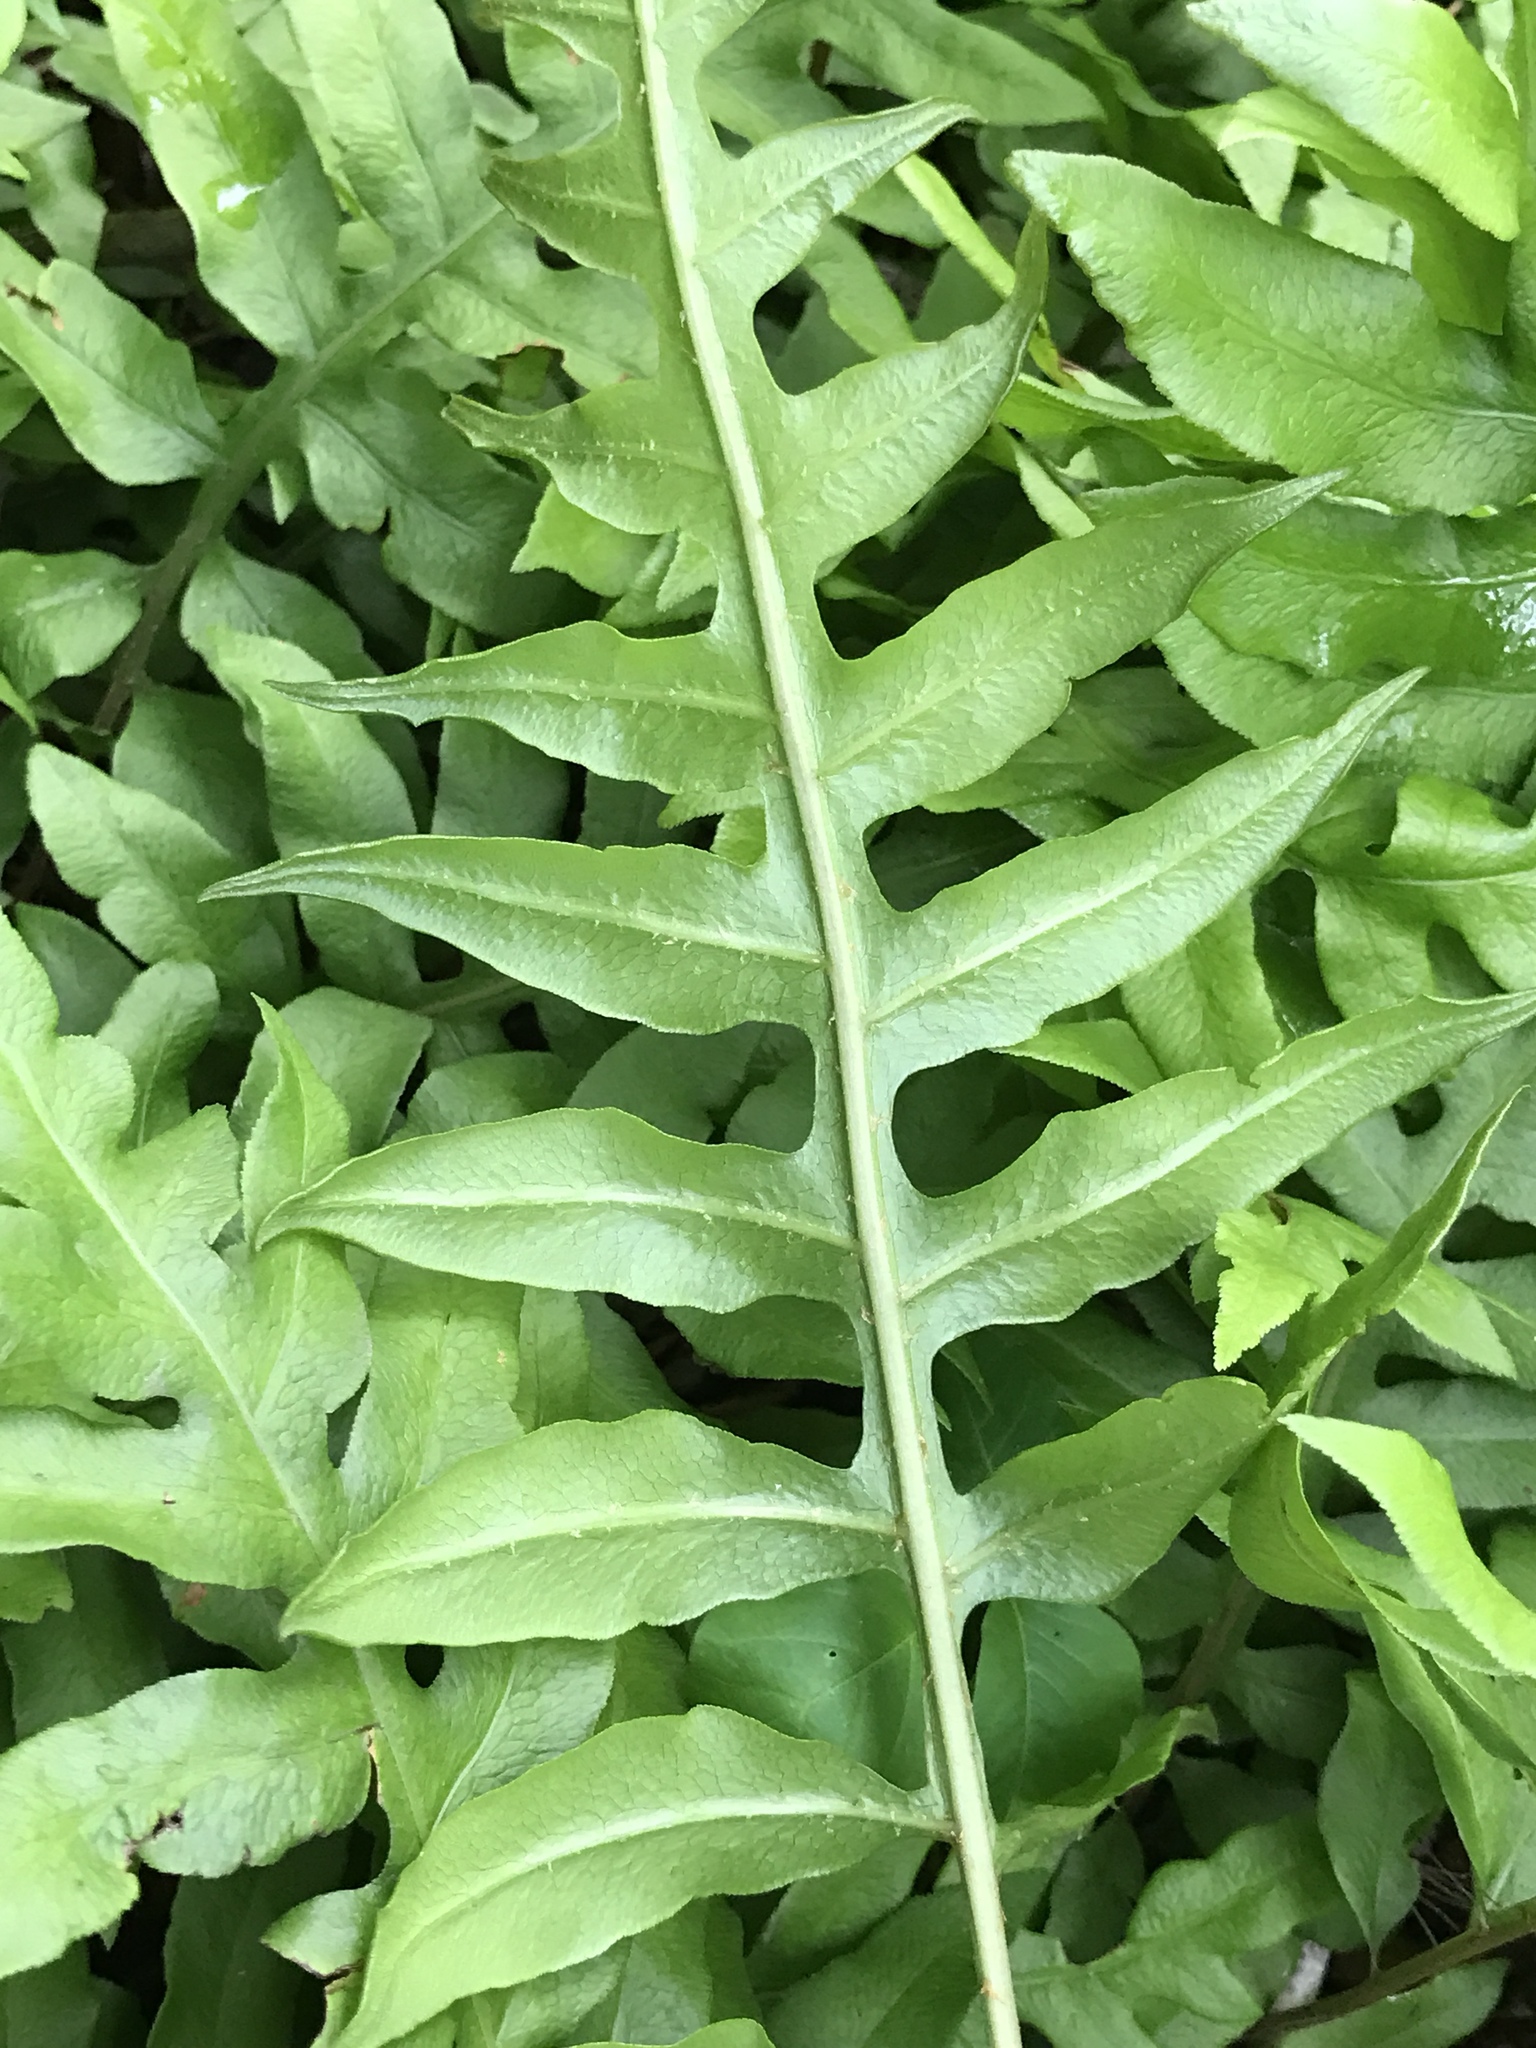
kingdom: Plantae
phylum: Tracheophyta
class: Polypodiopsida
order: Polypodiales
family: Blechnaceae
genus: Lorinseria
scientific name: Lorinseria areolata
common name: Dwarf chain fern
